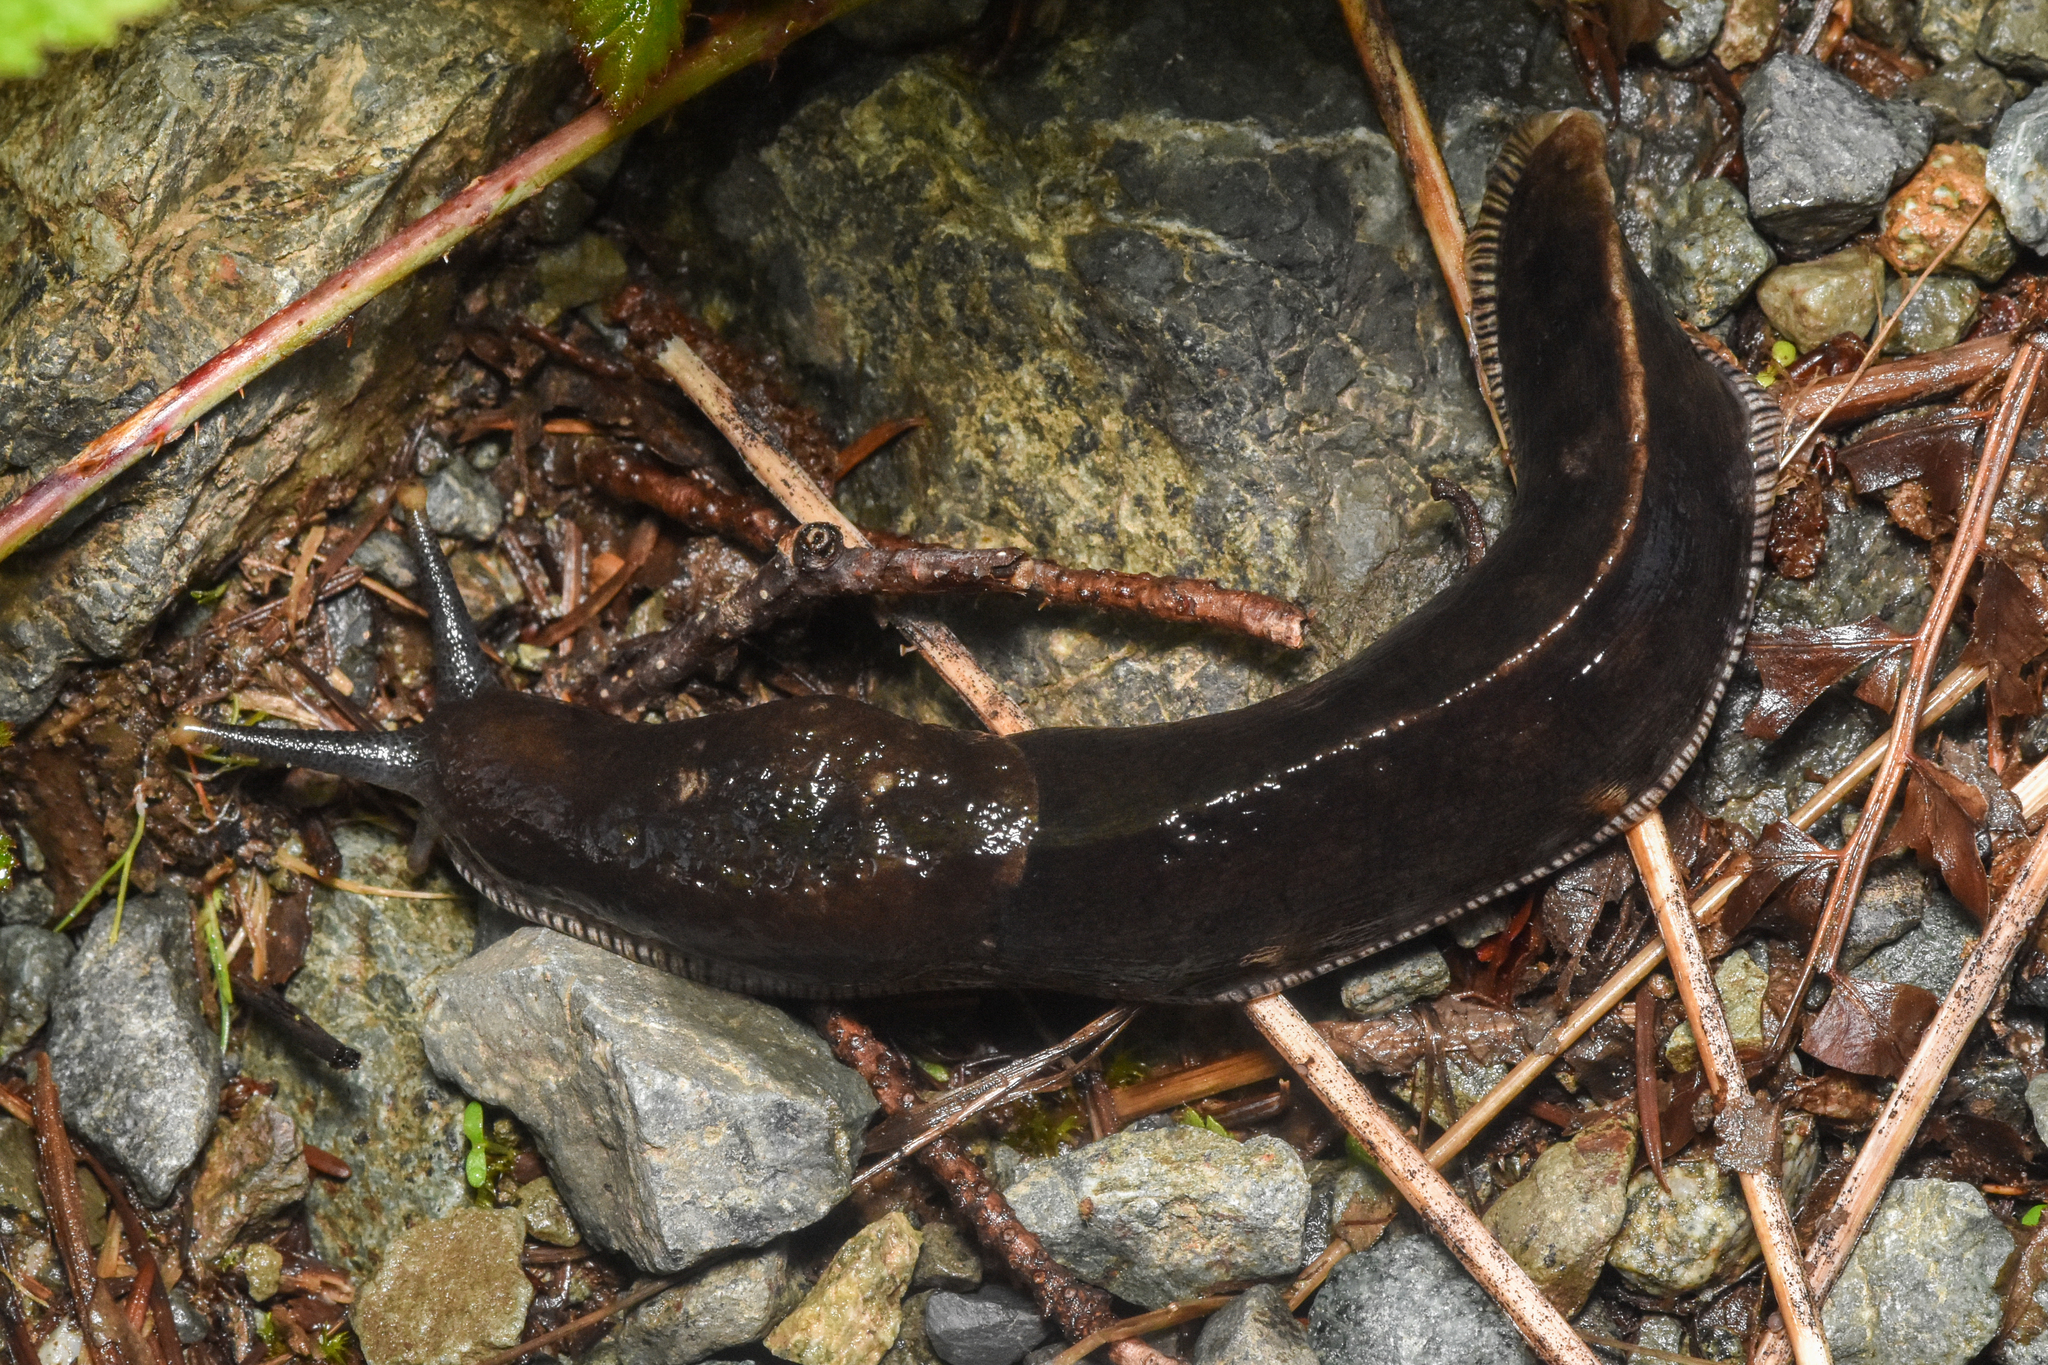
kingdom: Animalia
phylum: Mollusca
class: Gastropoda
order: Stylommatophora
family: Ariolimacidae
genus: Ariolimax
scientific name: Ariolimax columbianus
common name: Pacific banana slug
